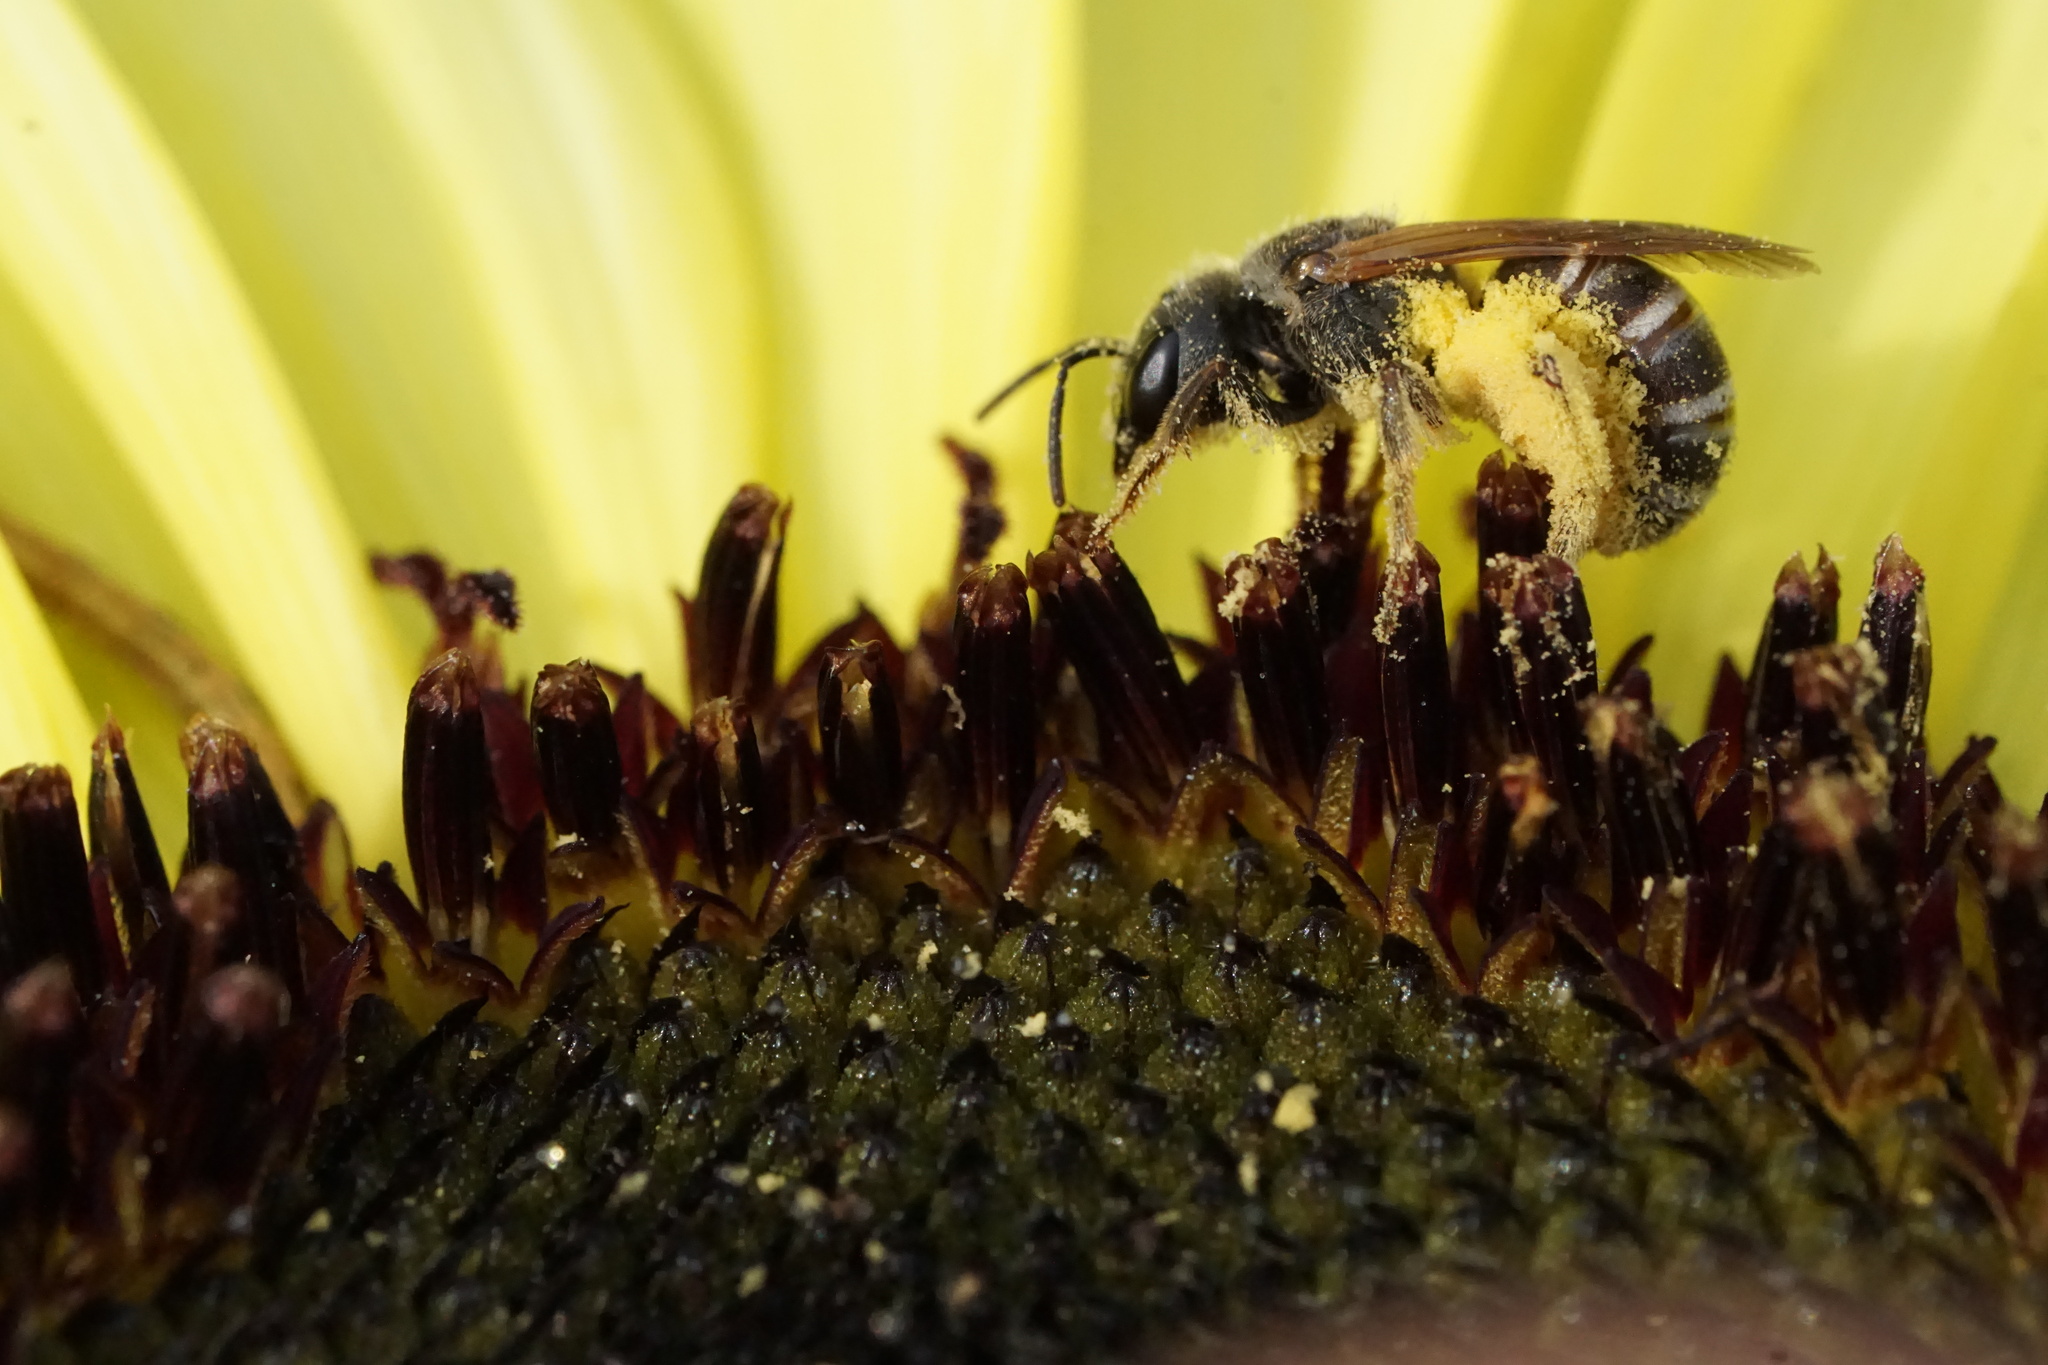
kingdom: Animalia
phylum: Arthropoda
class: Insecta
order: Hymenoptera
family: Halictidae
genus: Halictus
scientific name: Halictus ligatus
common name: Ligated furrow bee
